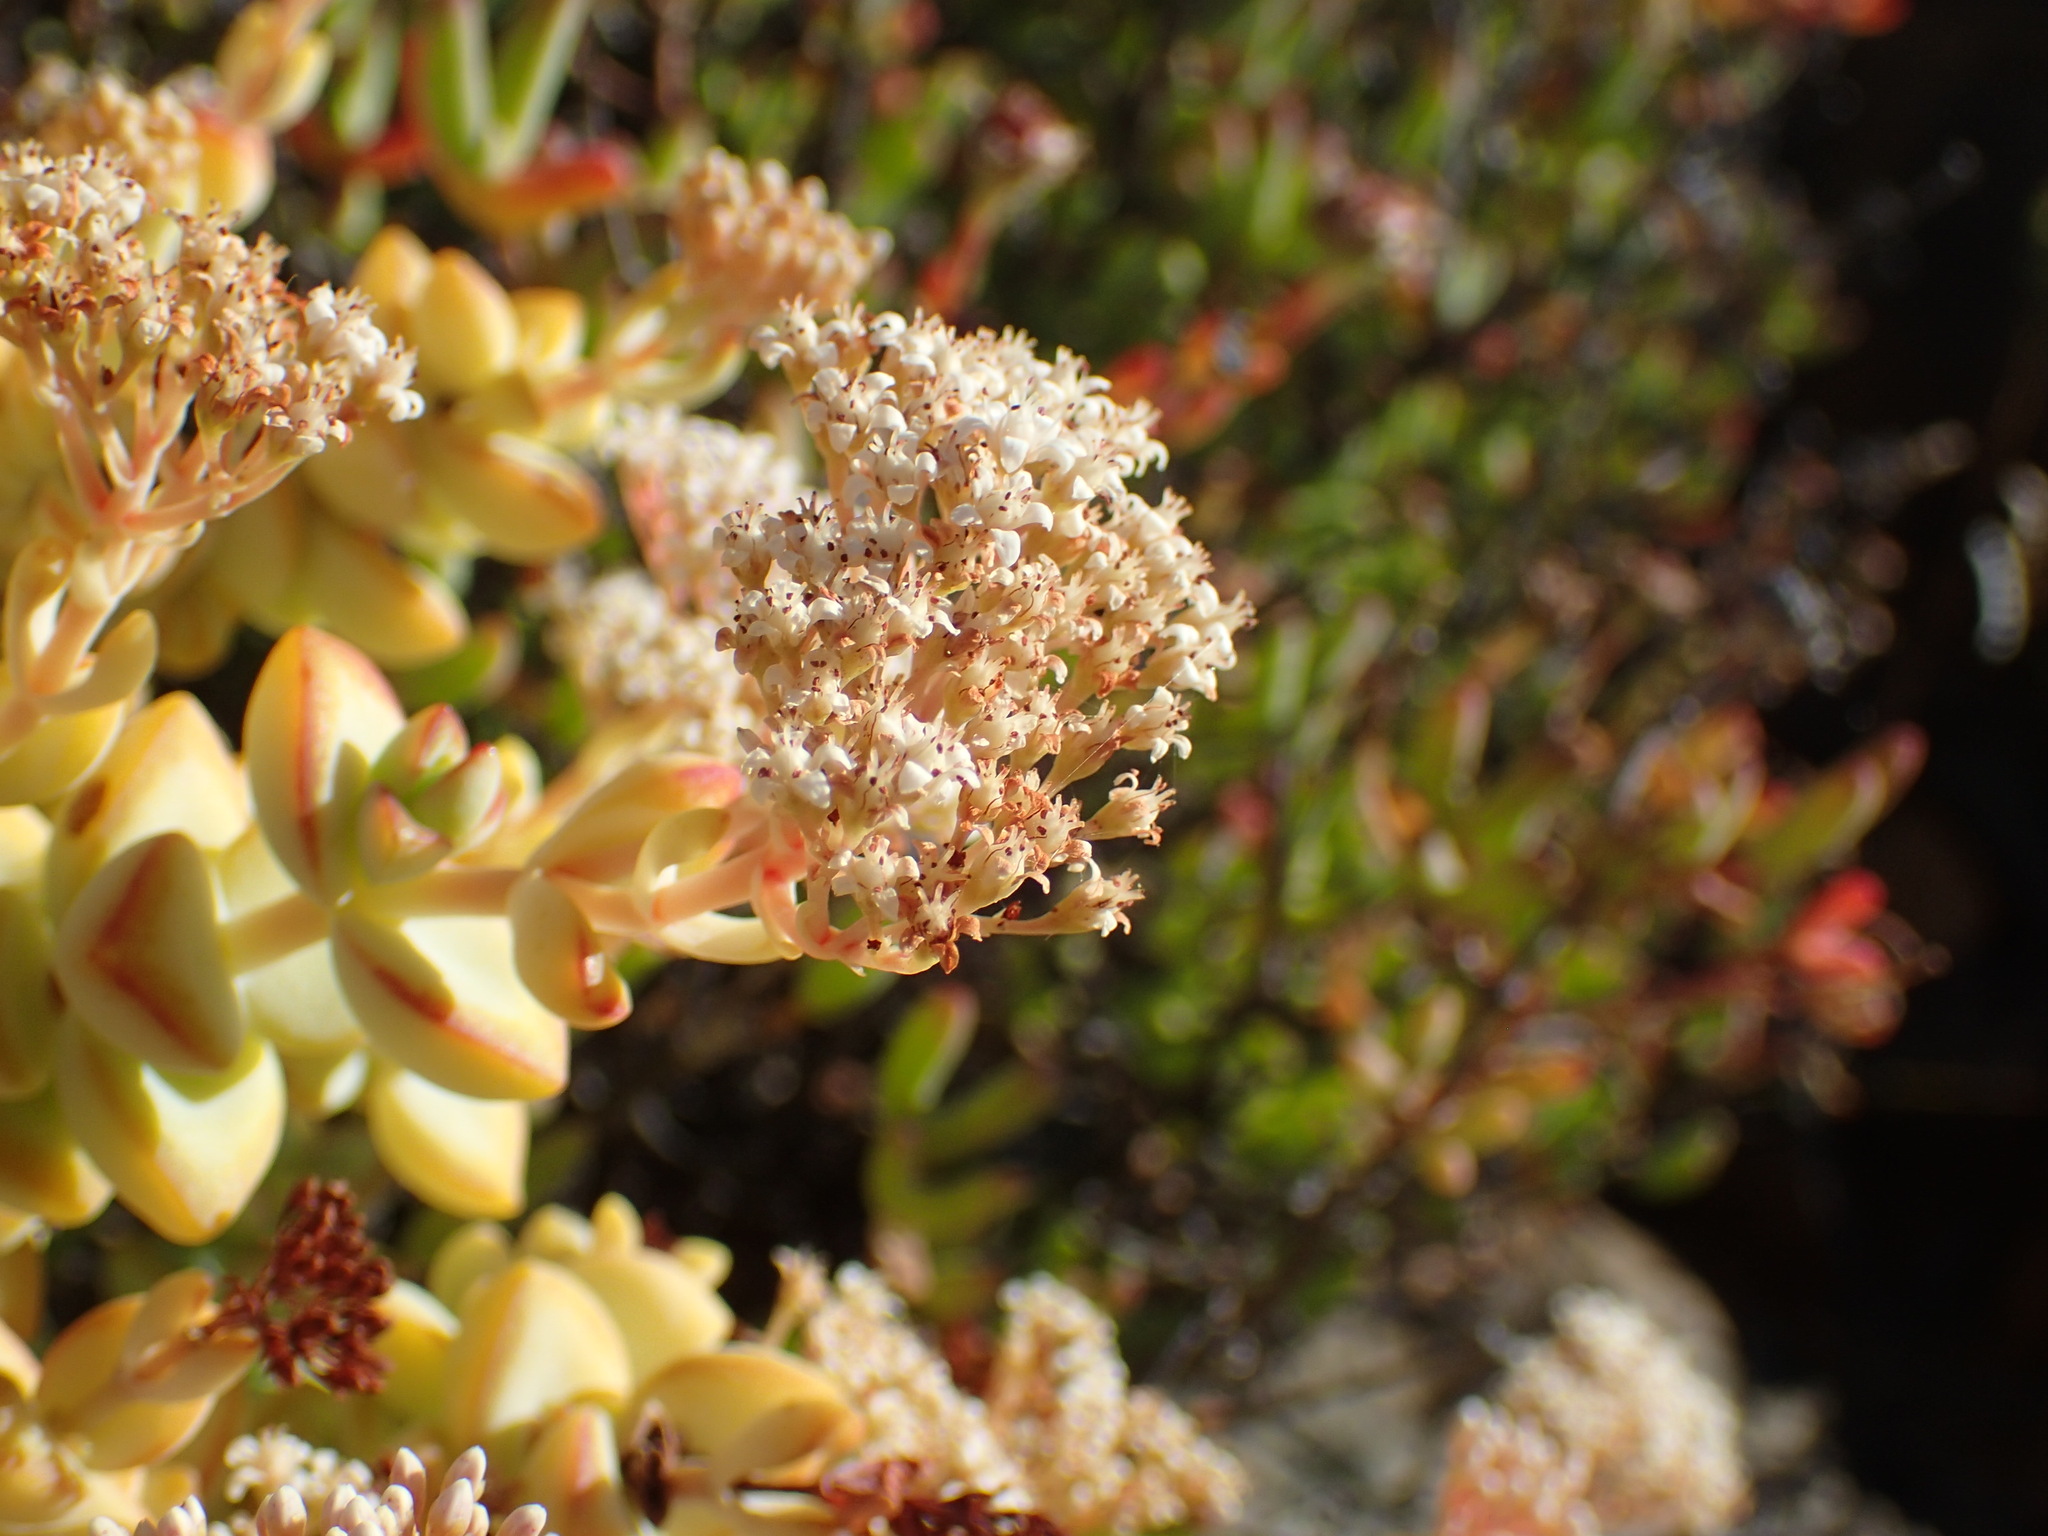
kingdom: Plantae
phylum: Tracheophyta
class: Magnoliopsida
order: Saxifragales
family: Crassulaceae
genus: Crassula
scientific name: Crassula rupestris
